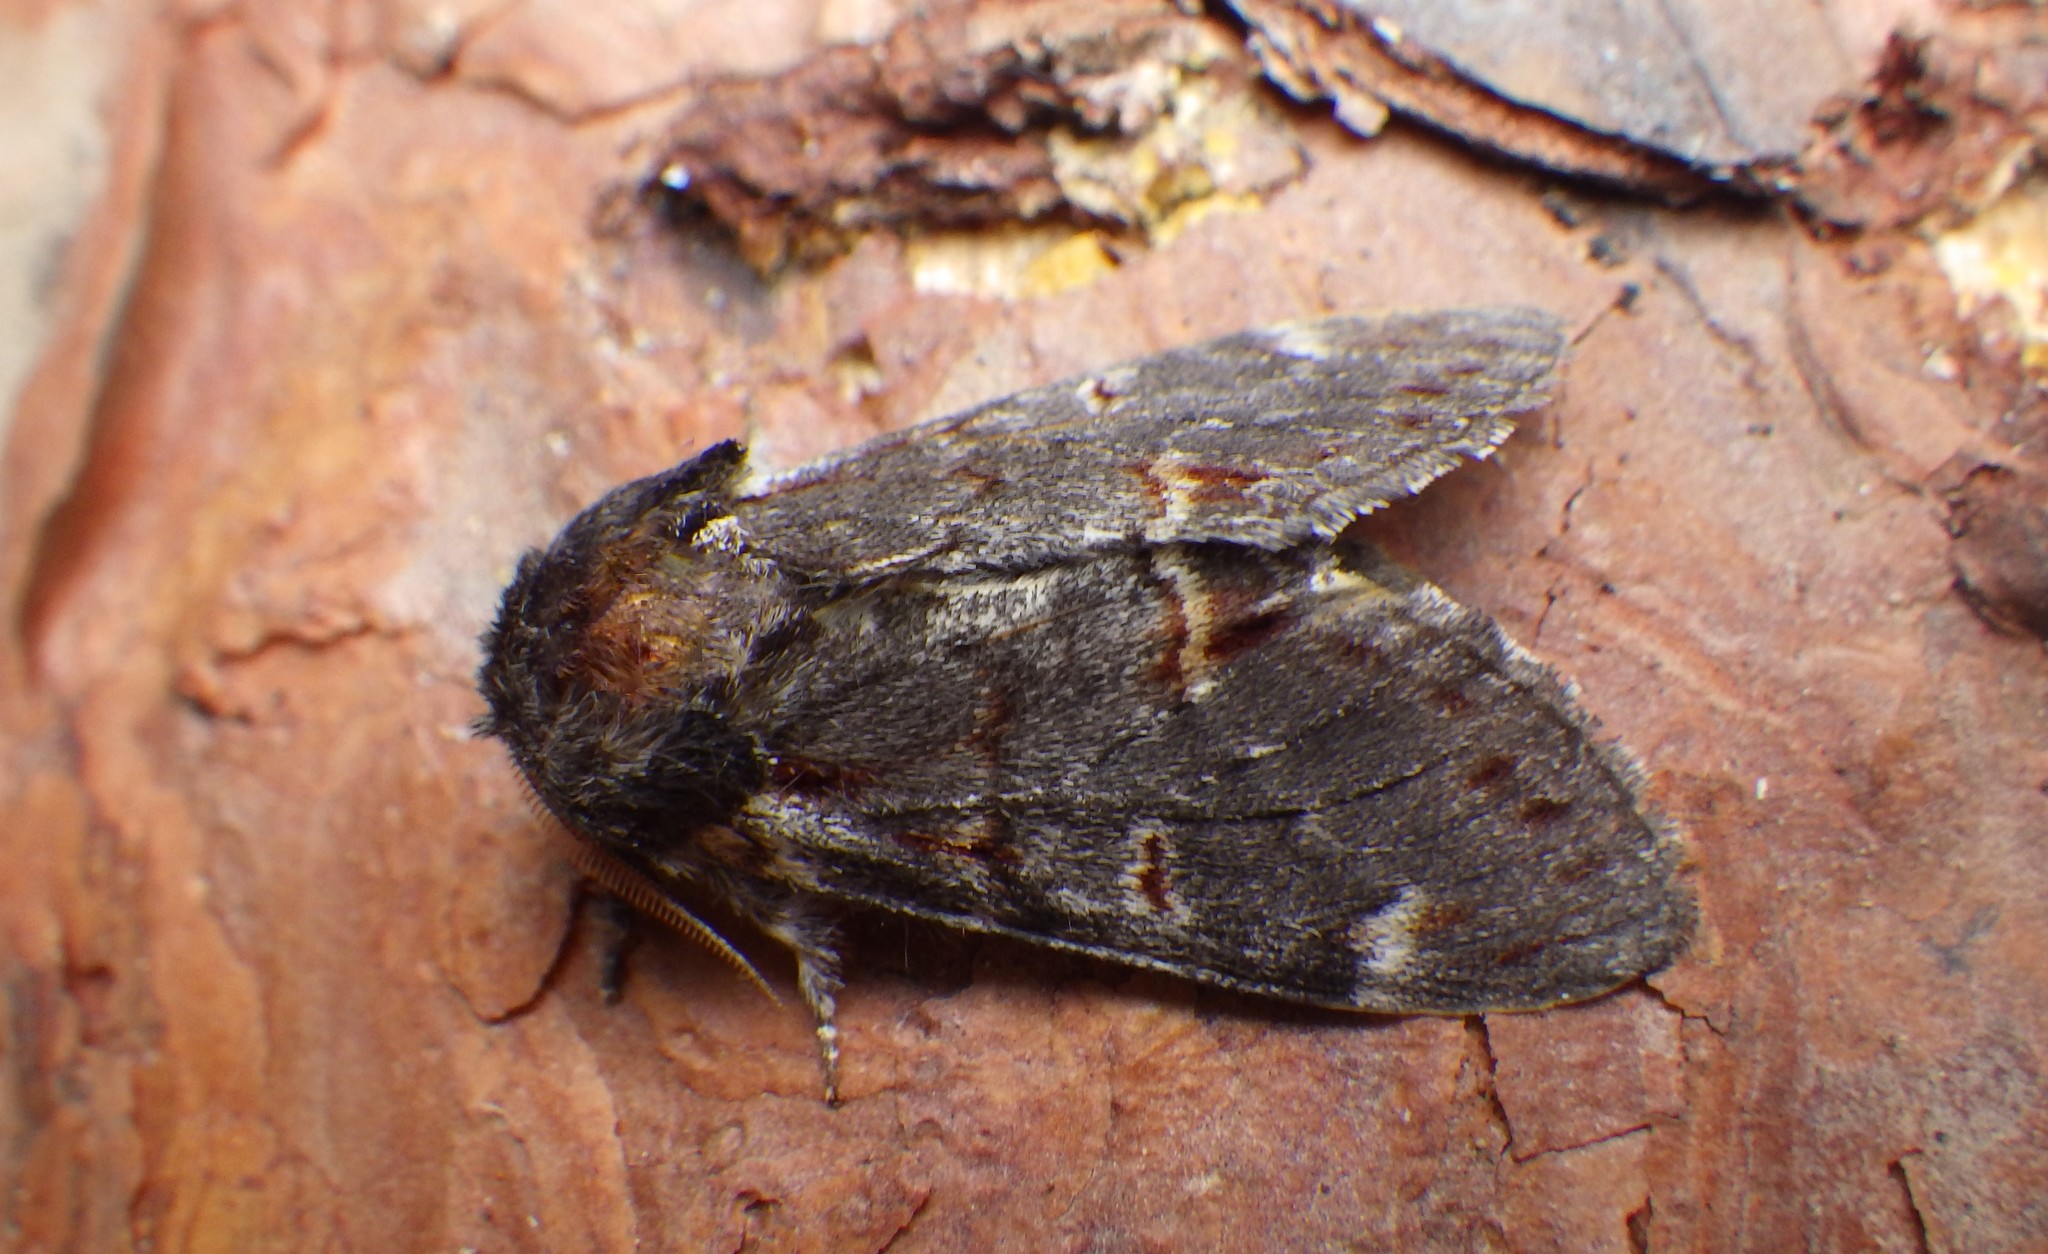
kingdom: Animalia
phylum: Arthropoda
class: Insecta
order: Lepidoptera
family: Notodontidae
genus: Notodonta
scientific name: Notodonta dromedarius
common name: Iron prominent
